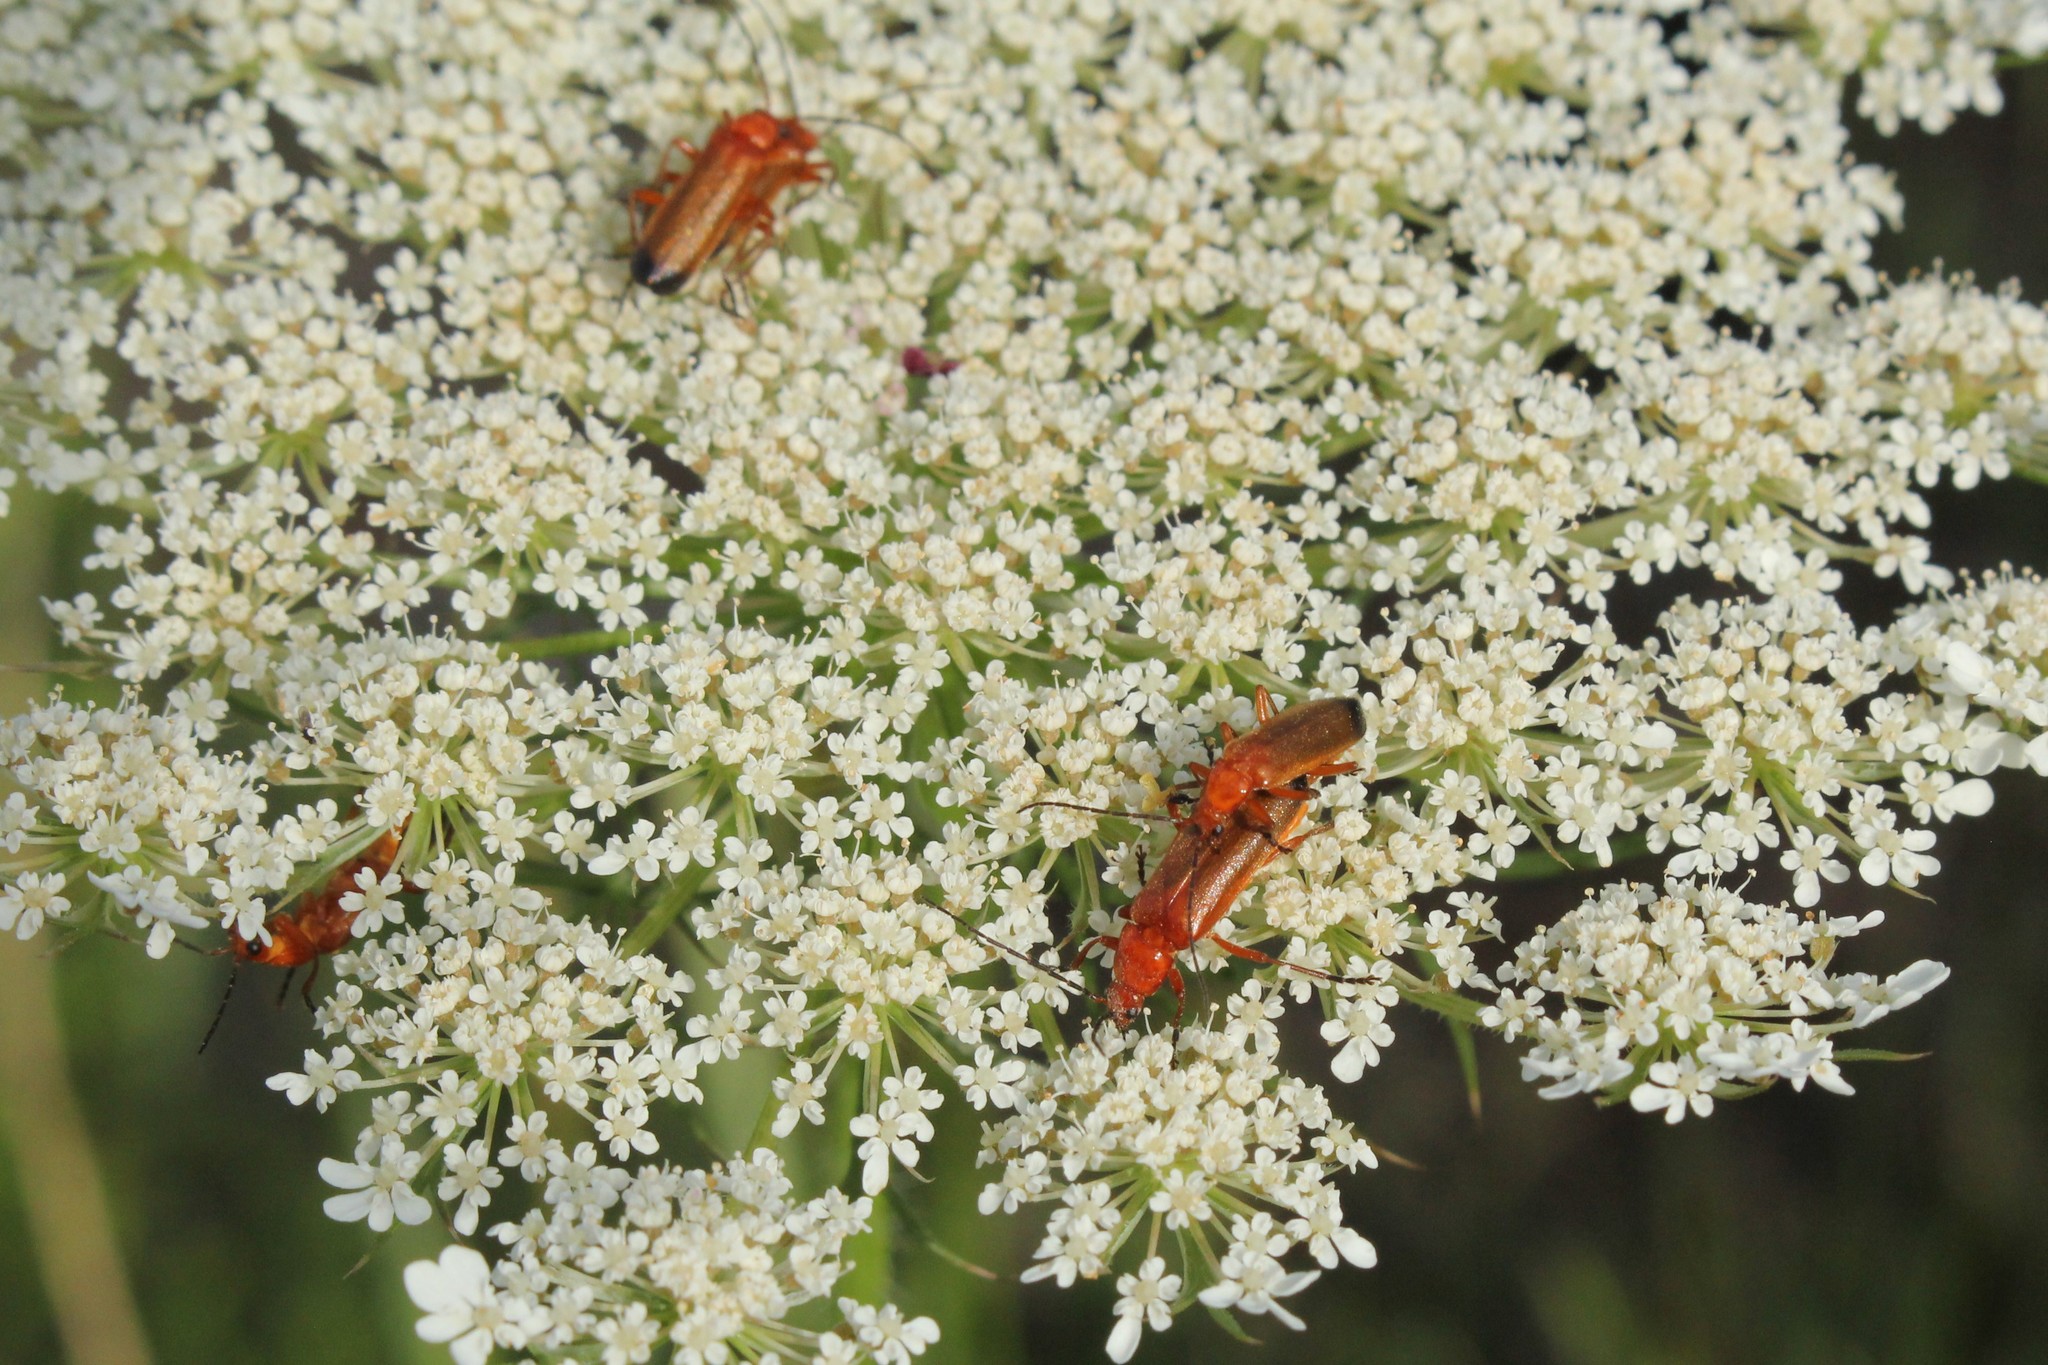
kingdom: Animalia
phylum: Arthropoda
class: Insecta
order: Coleoptera
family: Cantharidae
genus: Rhagonycha
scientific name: Rhagonycha fulva
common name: Common red soldier beetle
